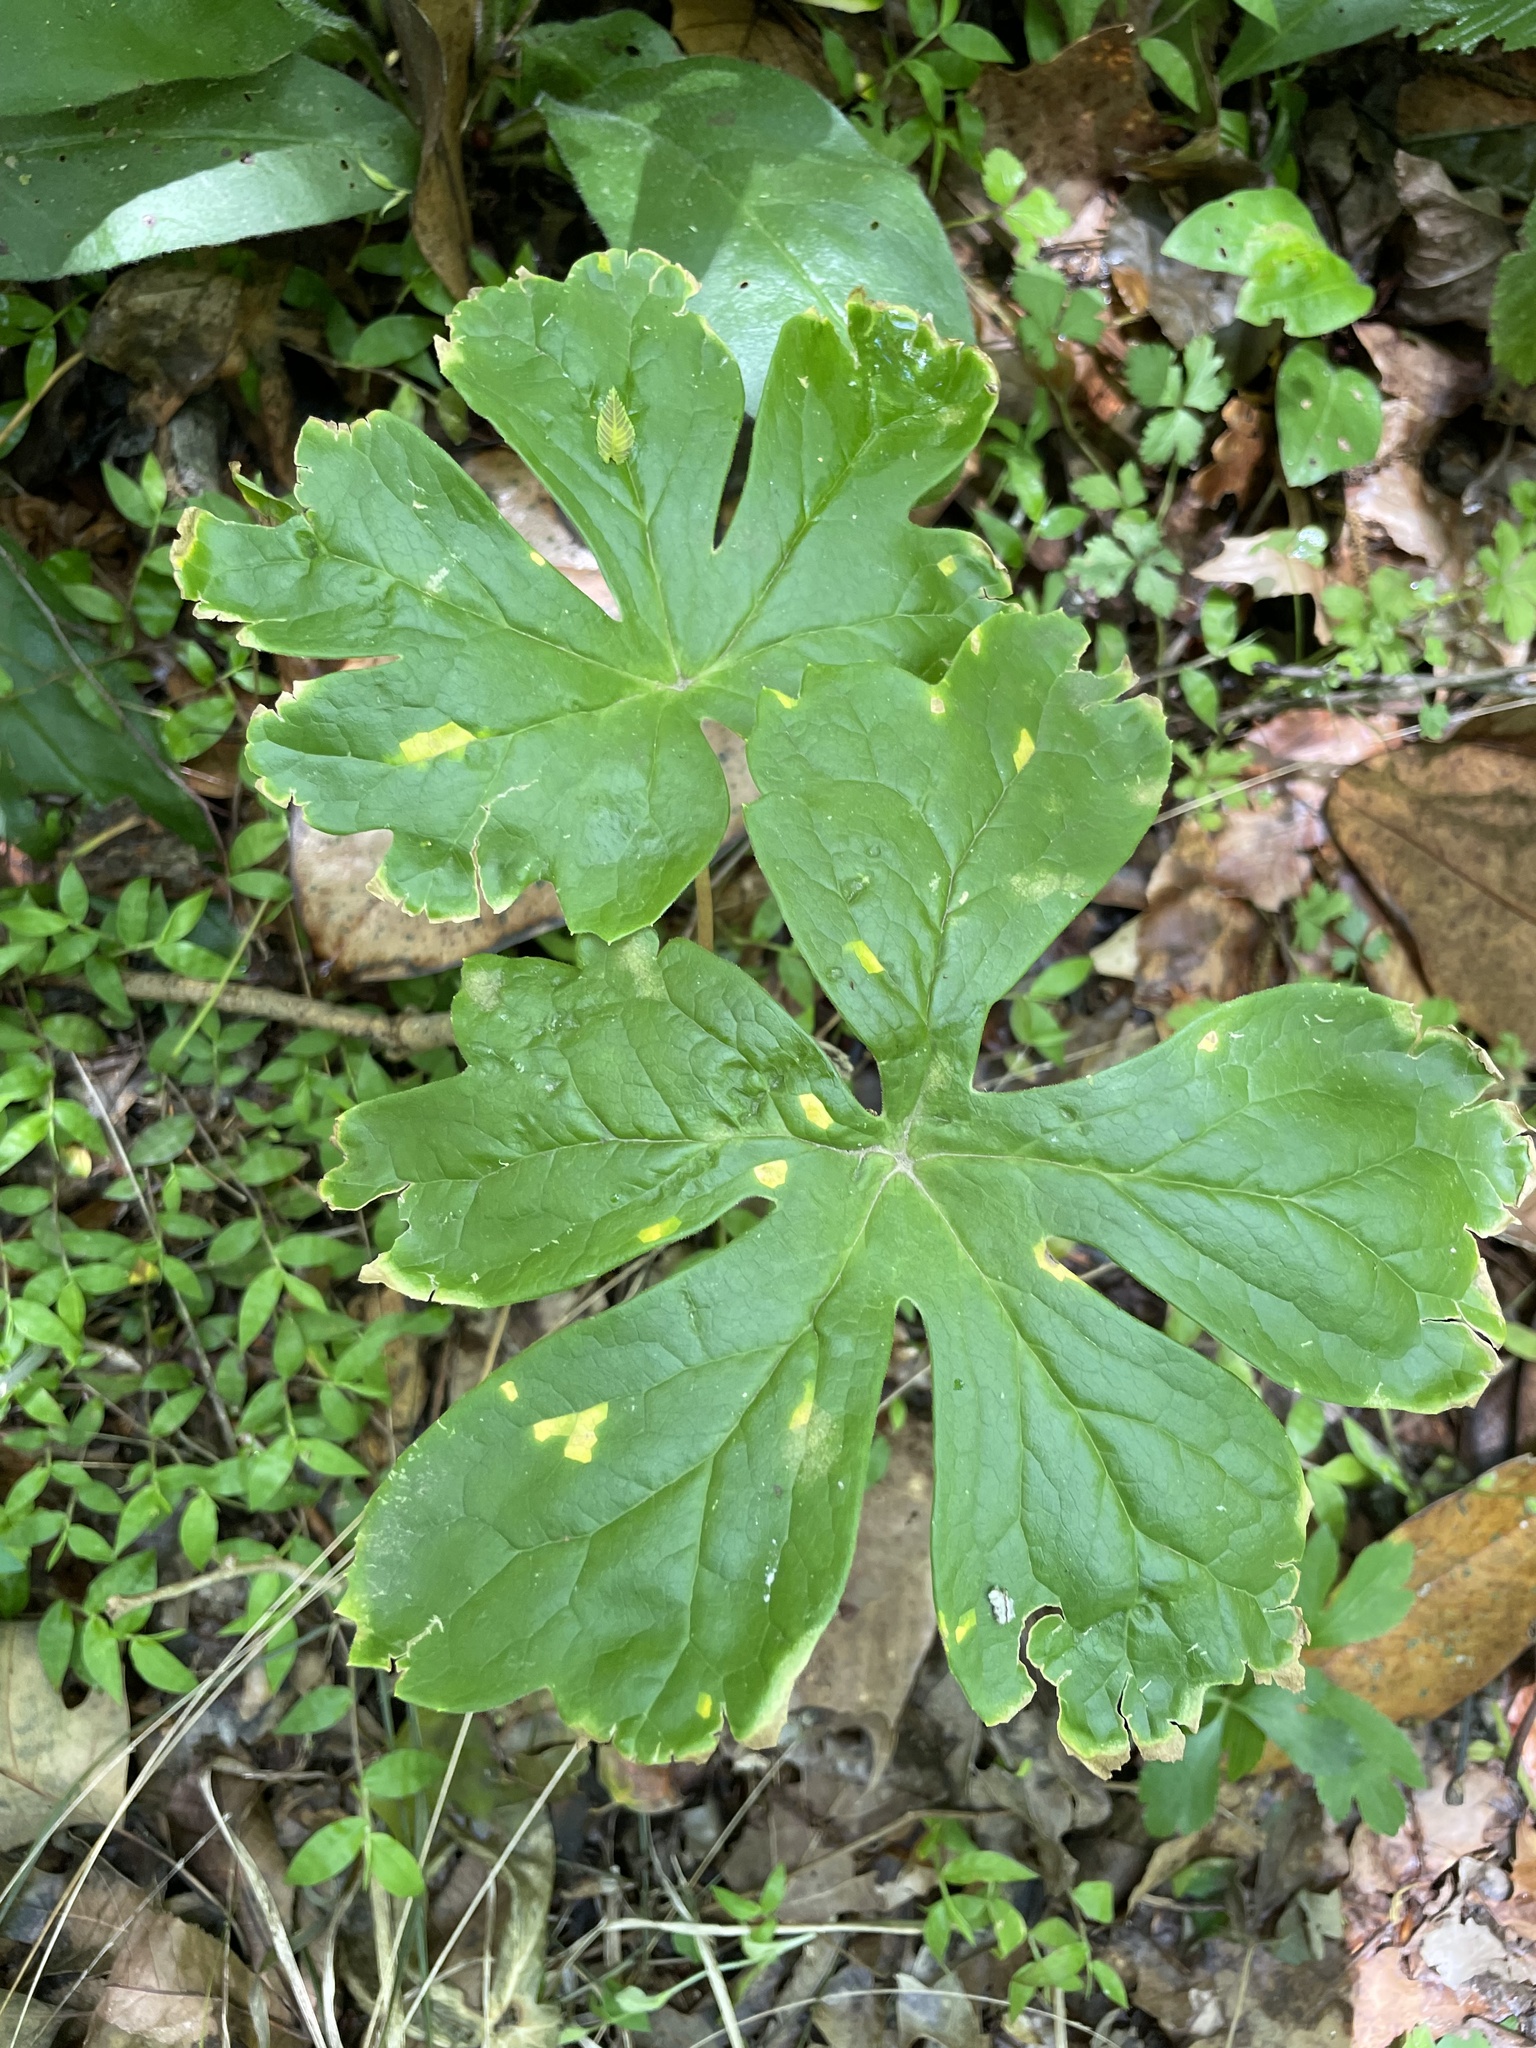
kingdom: Plantae
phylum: Tracheophyta
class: Magnoliopsida
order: Ranunculales
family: Berberidaceae
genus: Podophyllum
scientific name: Podophyllum peltatum
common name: Wild mandrake
